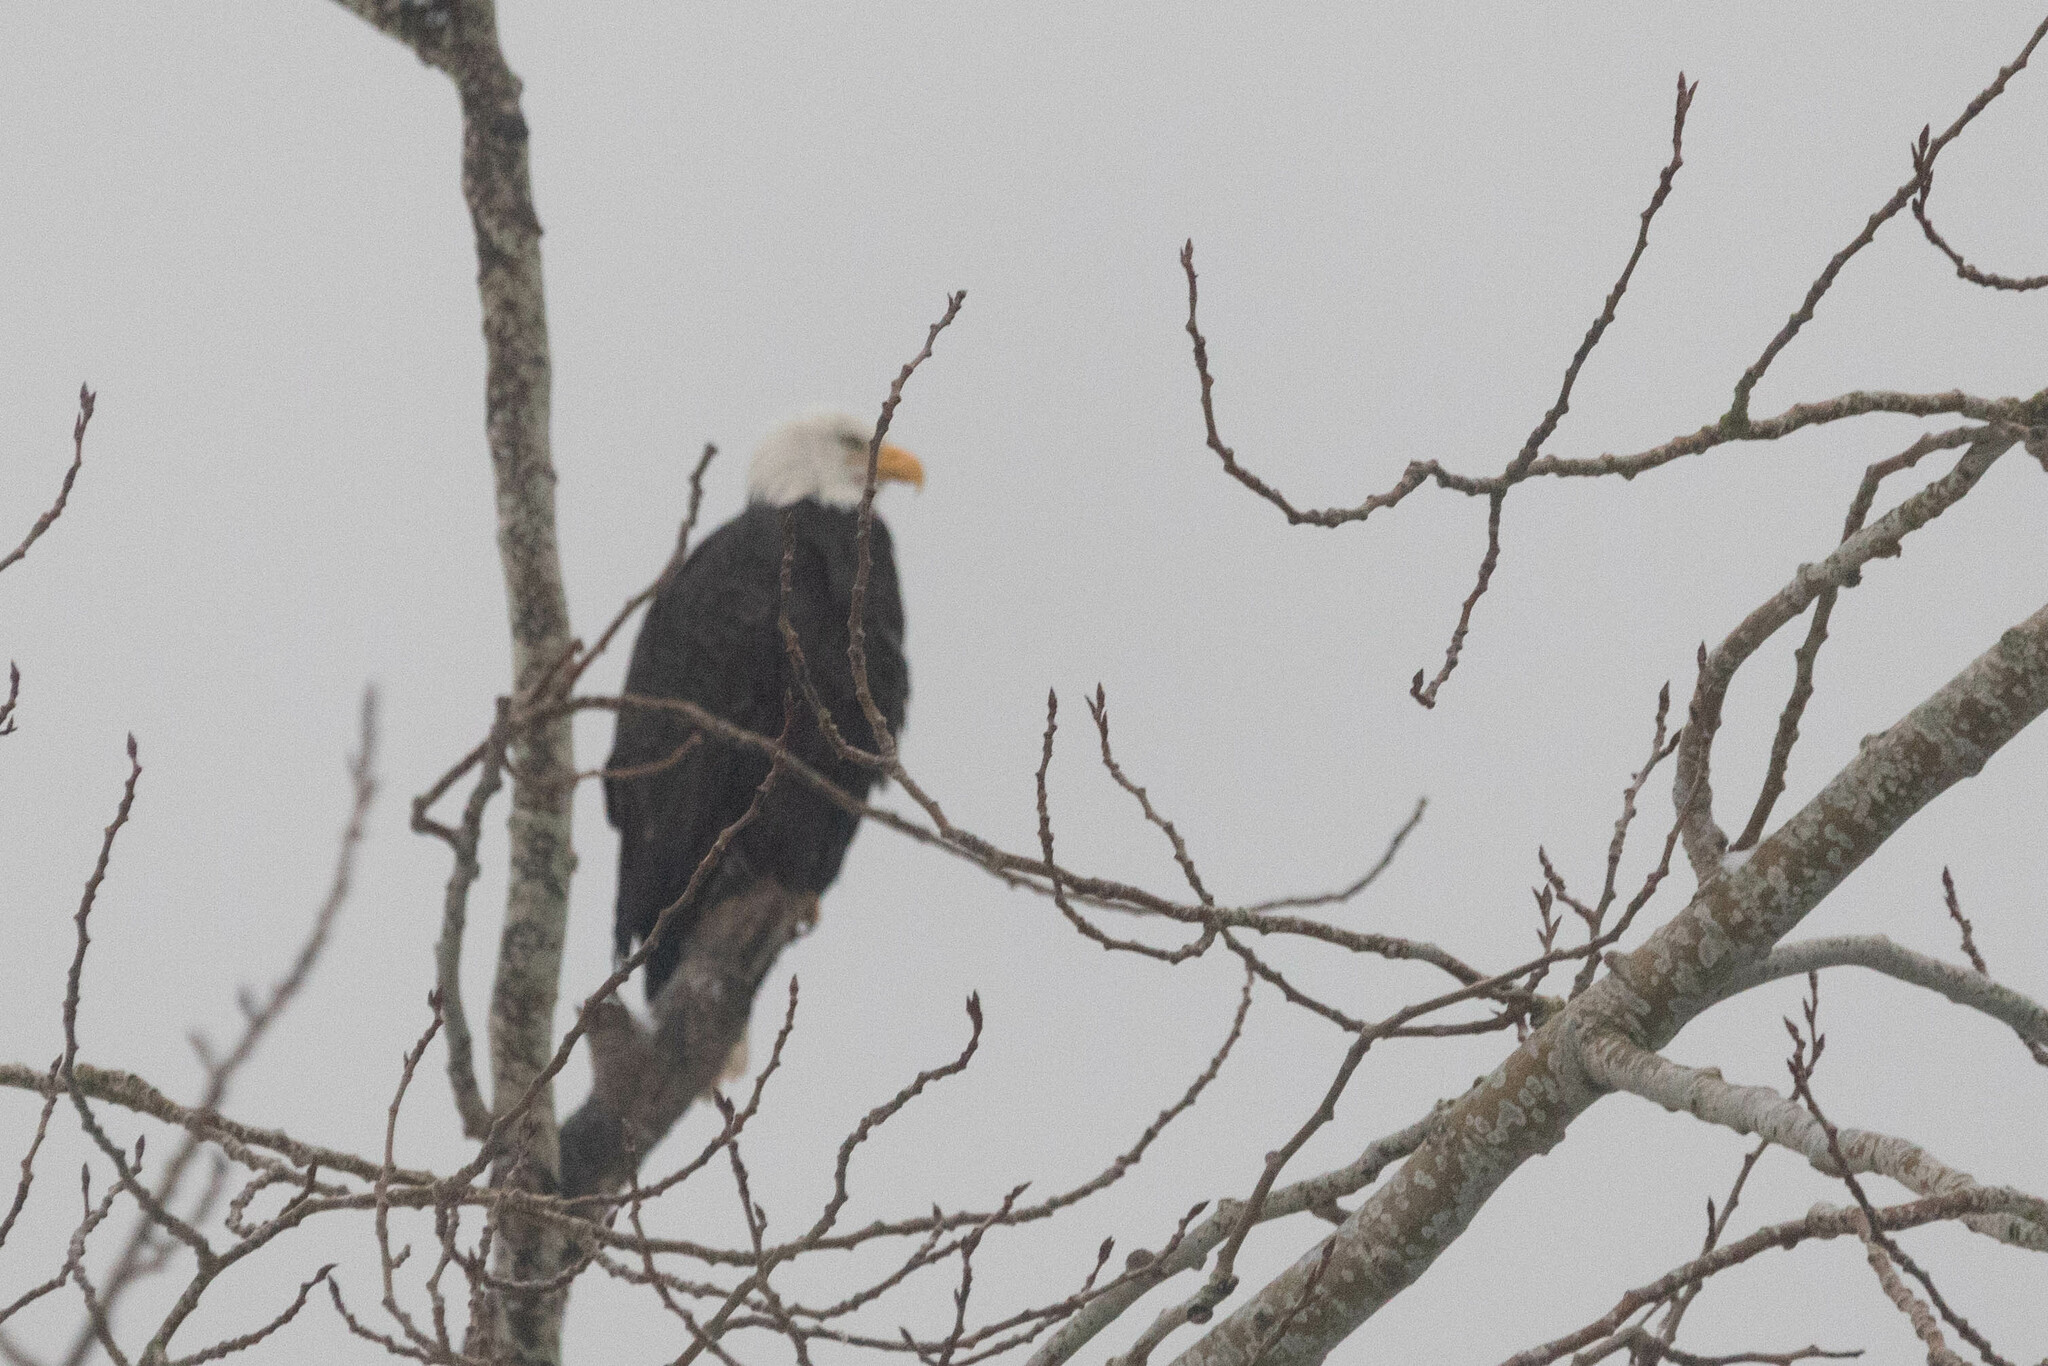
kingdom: Animalia
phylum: Chordata
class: Aves
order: Accipitriformes
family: Accipitridae
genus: Haliaeetus
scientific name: Haliaeetus leucocephalus
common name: Bald eagle
